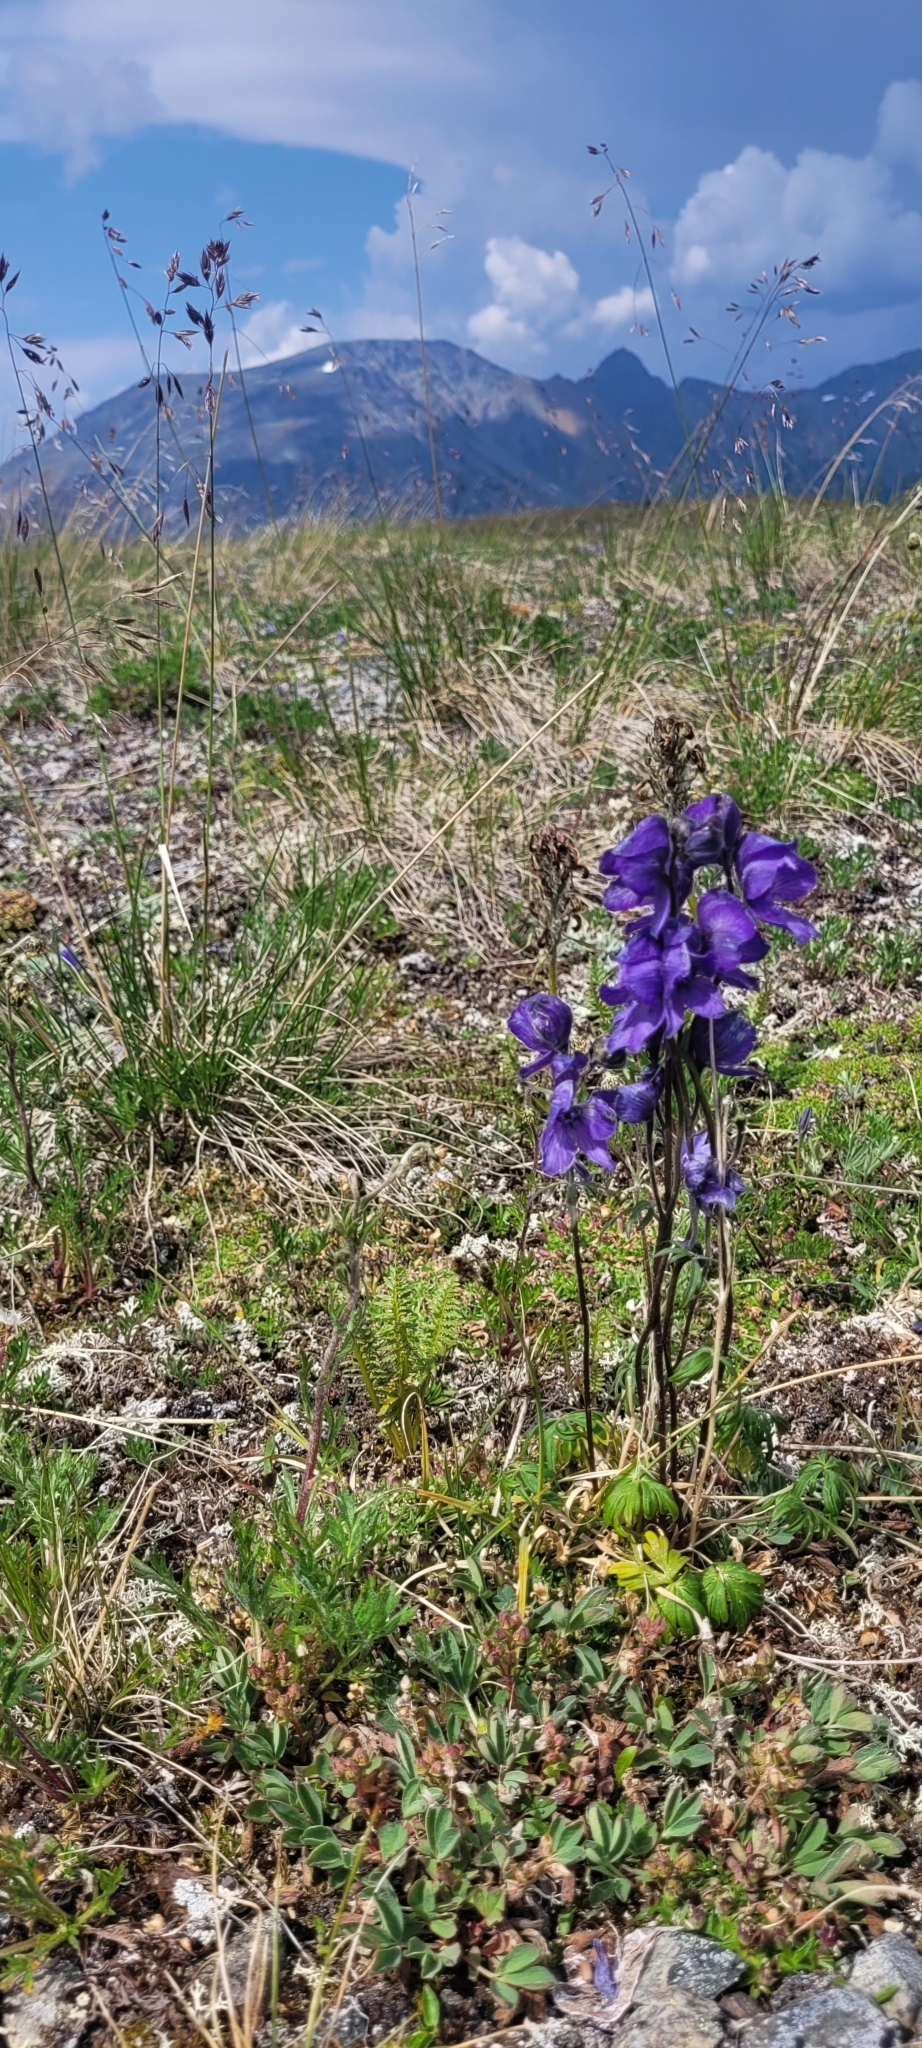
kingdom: Plantae
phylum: Tracheophyta
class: Magnoliopsida
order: Ranunculales
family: Ranunculaceae
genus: Aconitum
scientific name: Aconitum delphiniifolium
